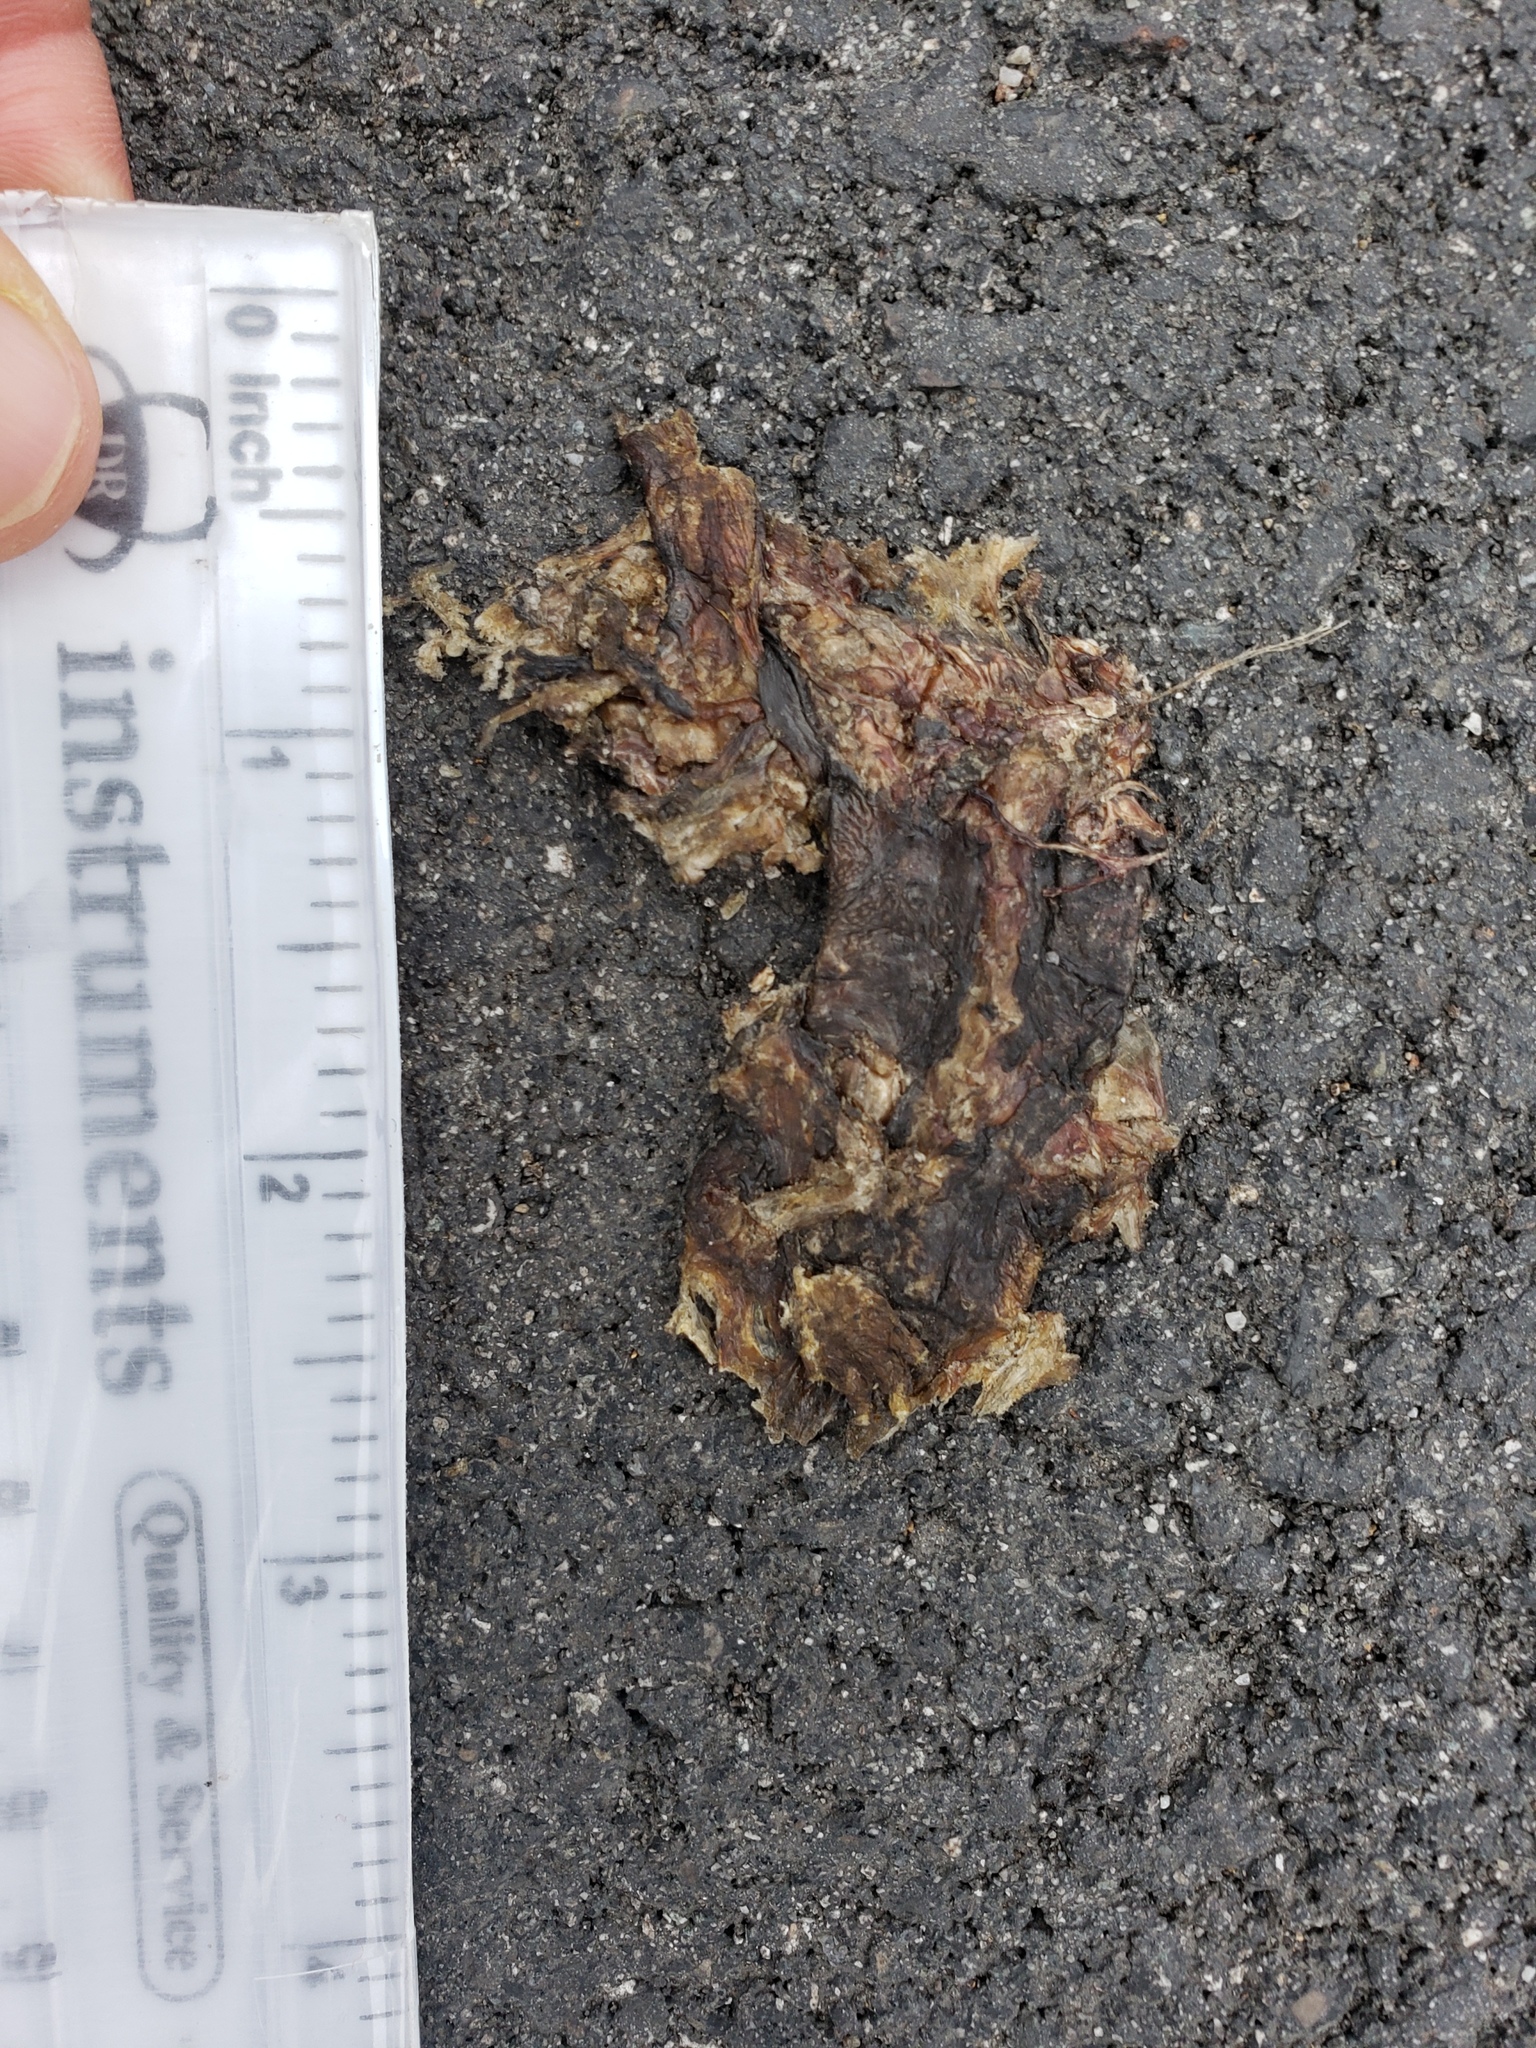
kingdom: Animalia
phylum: Chordata
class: Amphibia
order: Caudata
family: Salamandridae
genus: Taricha
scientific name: Taricha
